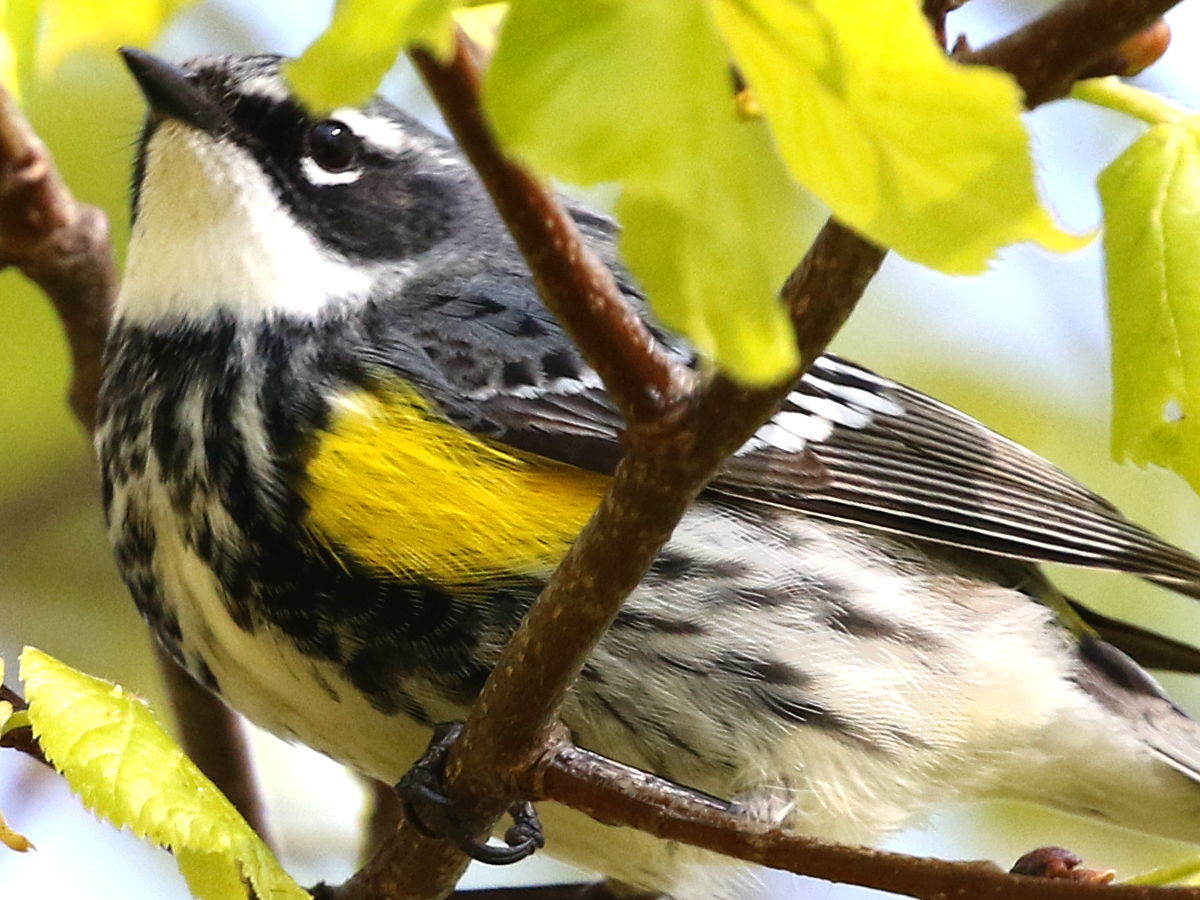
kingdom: Animalia
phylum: Chordata
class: Aves
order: Passeriformes
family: Parulidae
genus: Setophaga
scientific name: Setophaga coronata
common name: Myrtle warbler
